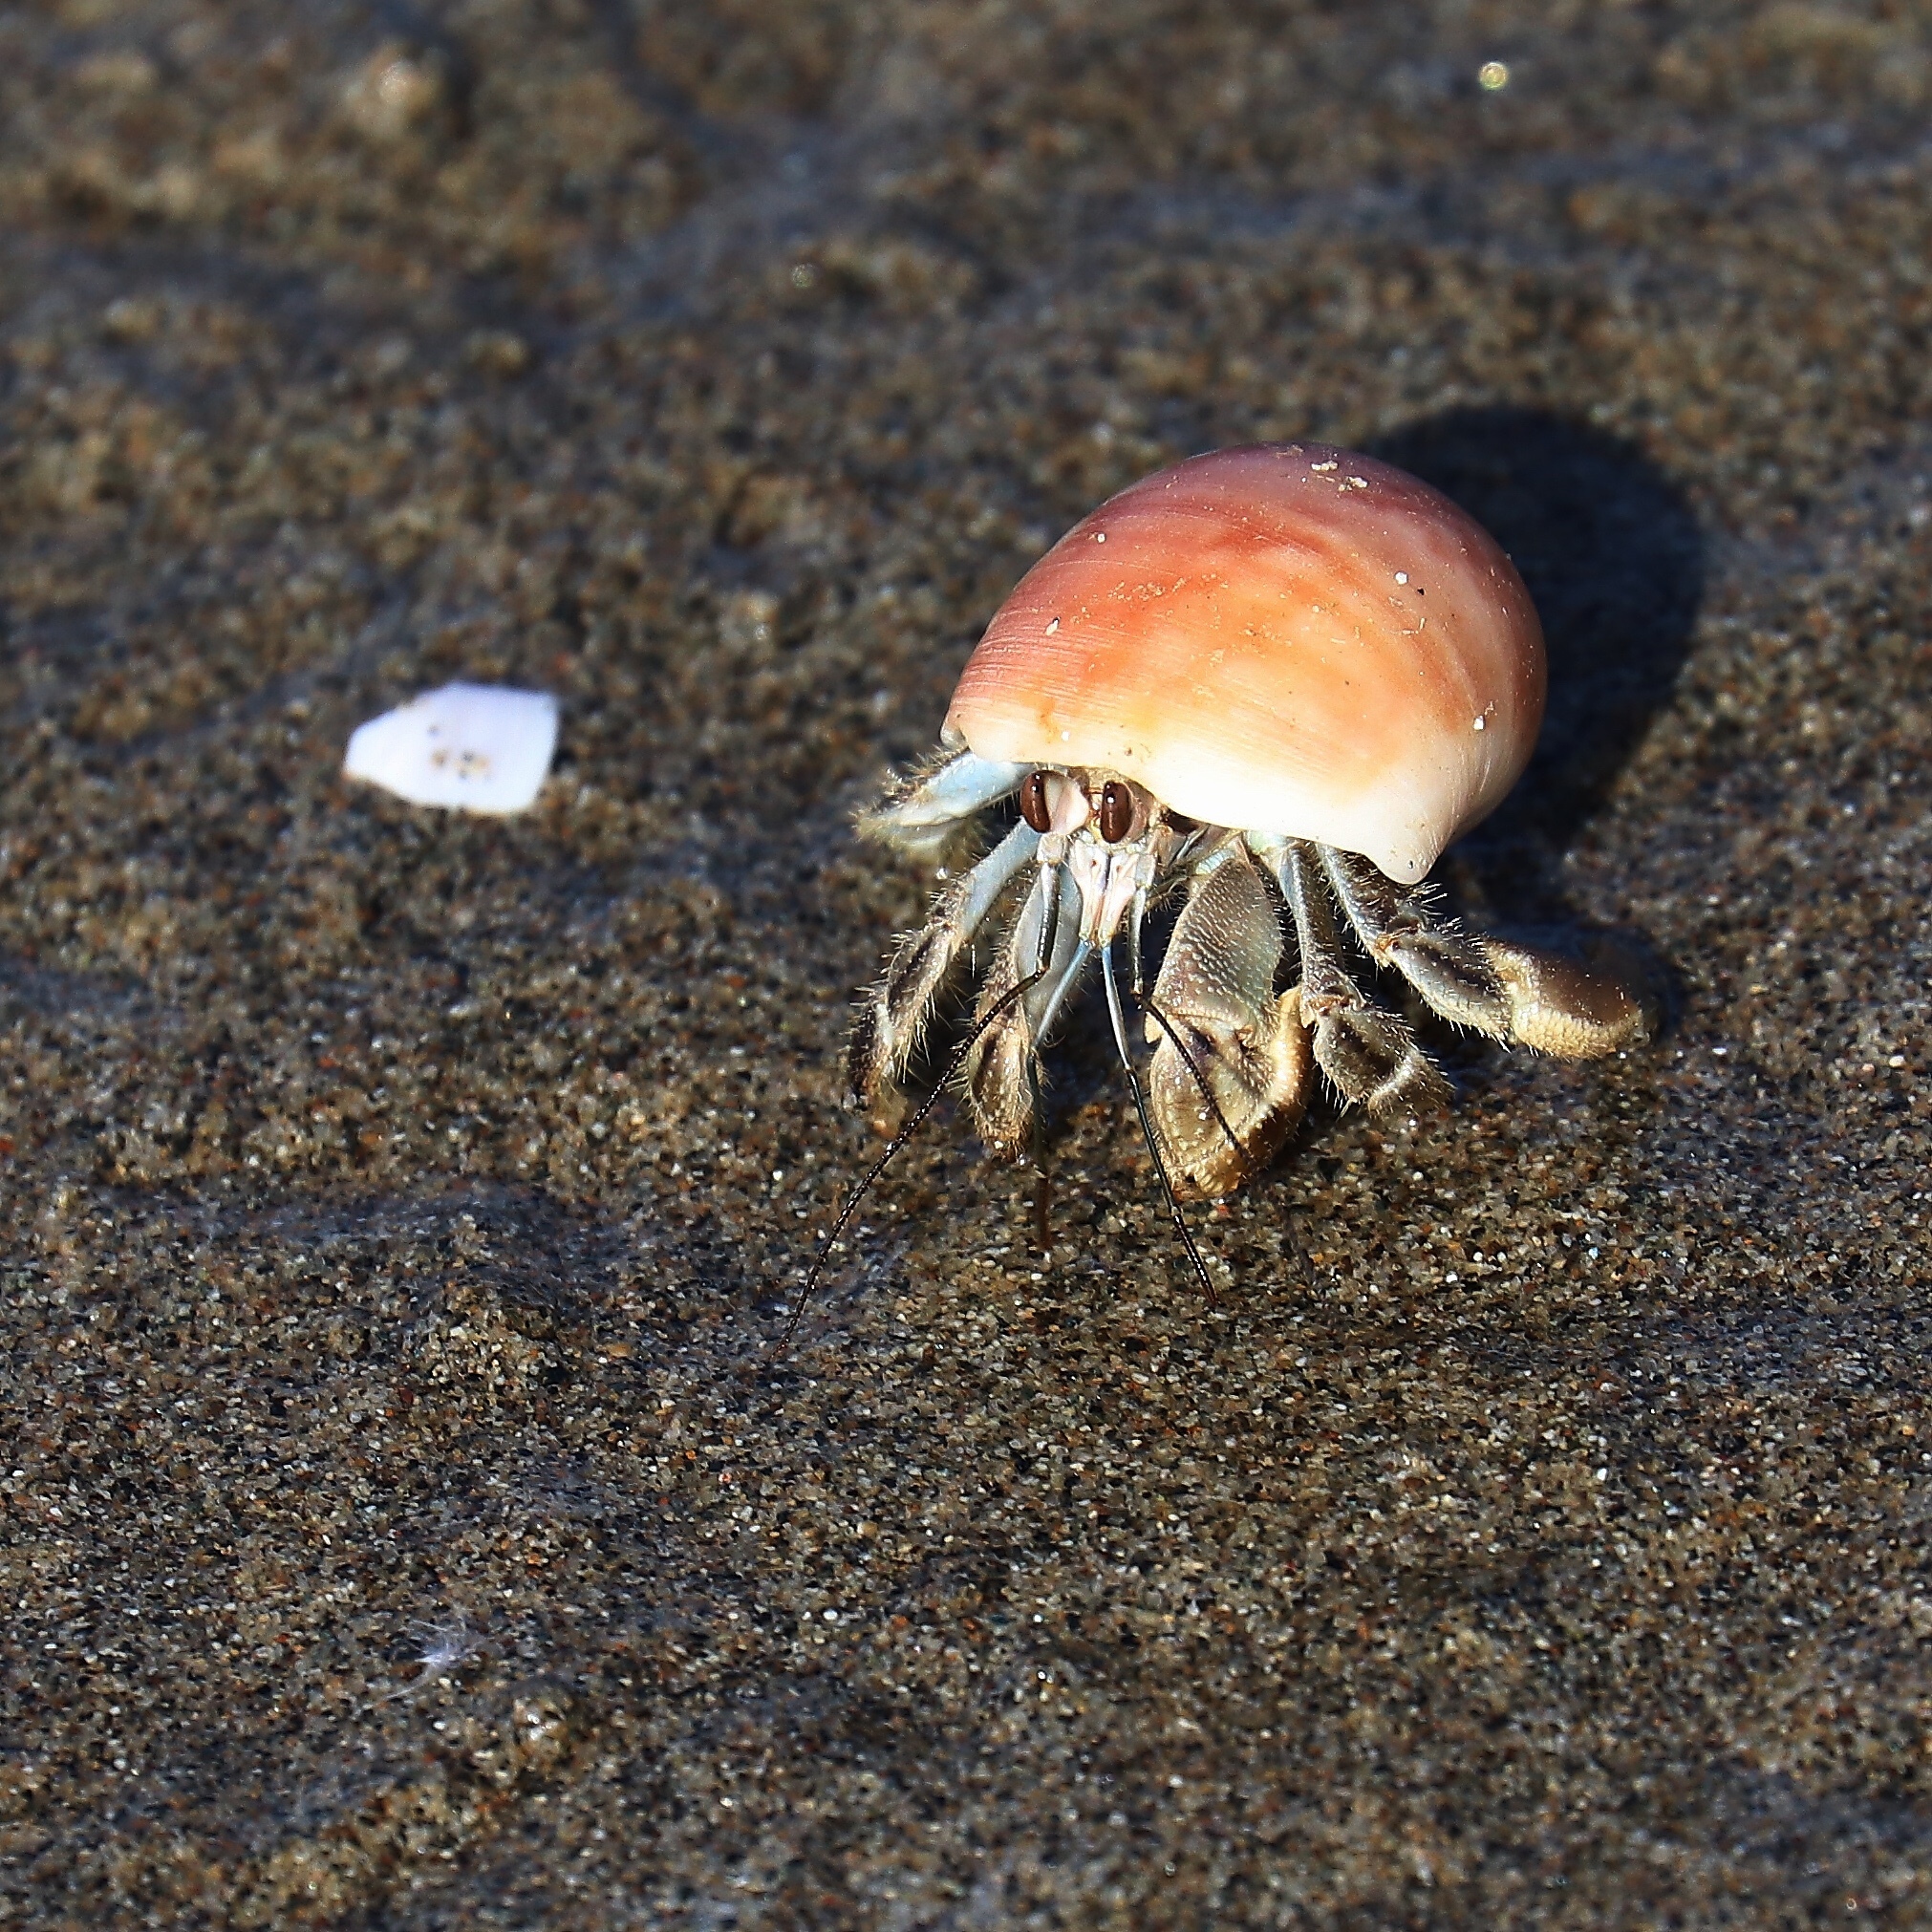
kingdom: Animalia
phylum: Arthropoda
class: Malacostraca
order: Decapoda
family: Coenobitidae
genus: Coenobita
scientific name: Coenobita compressus
